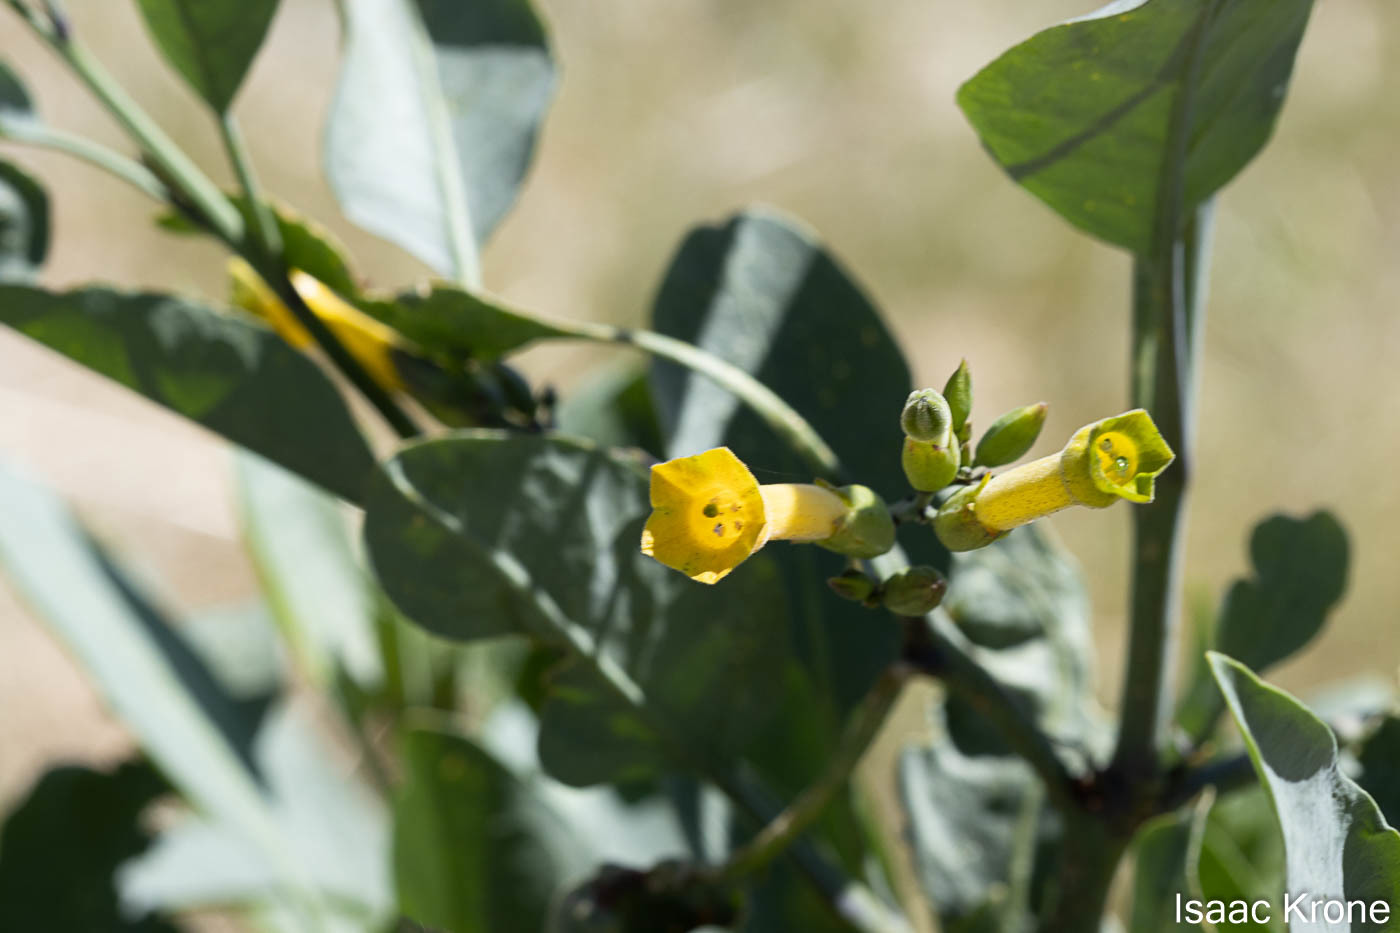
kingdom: Plantae
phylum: Tracheophyta
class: Magnoliopsida
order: Solanales
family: Solanaceae
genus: Nicotiana
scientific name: Nicotiana glauca
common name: Tree tobacco
